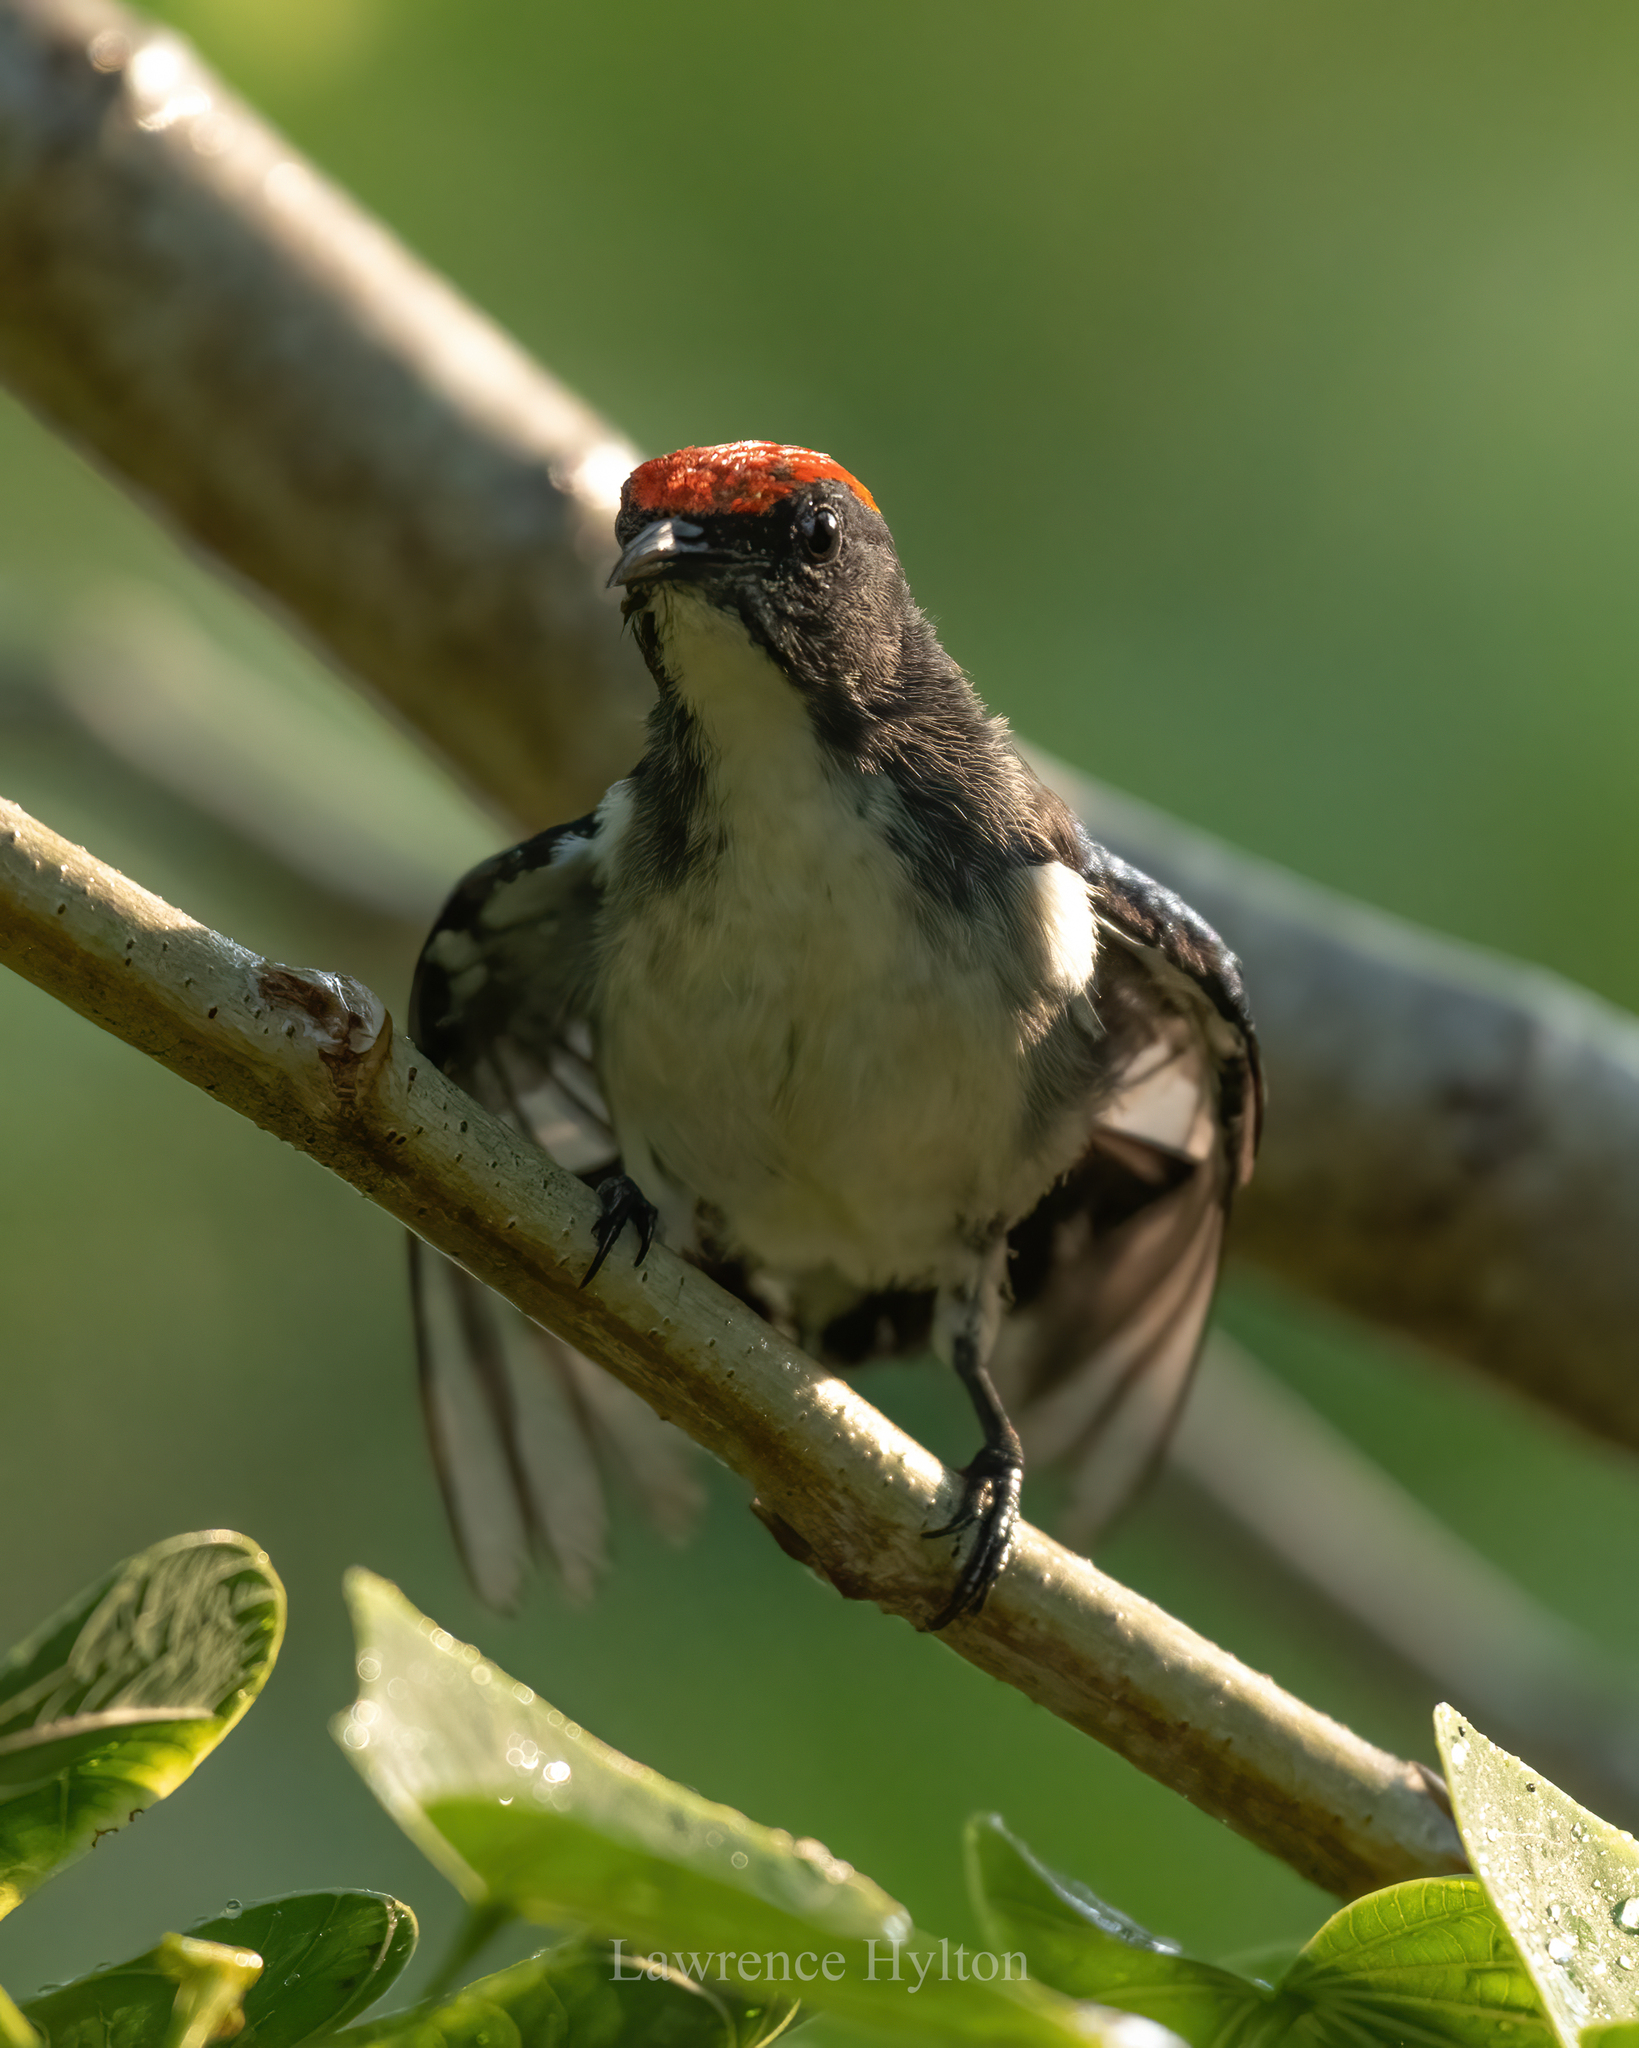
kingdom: Animalia
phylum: Chordata
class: Aves
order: Passeriformes
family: Dicaeidae
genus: Dicaeum
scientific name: Dicaeum cruentatum
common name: Scarlet-backed flowerpecker
